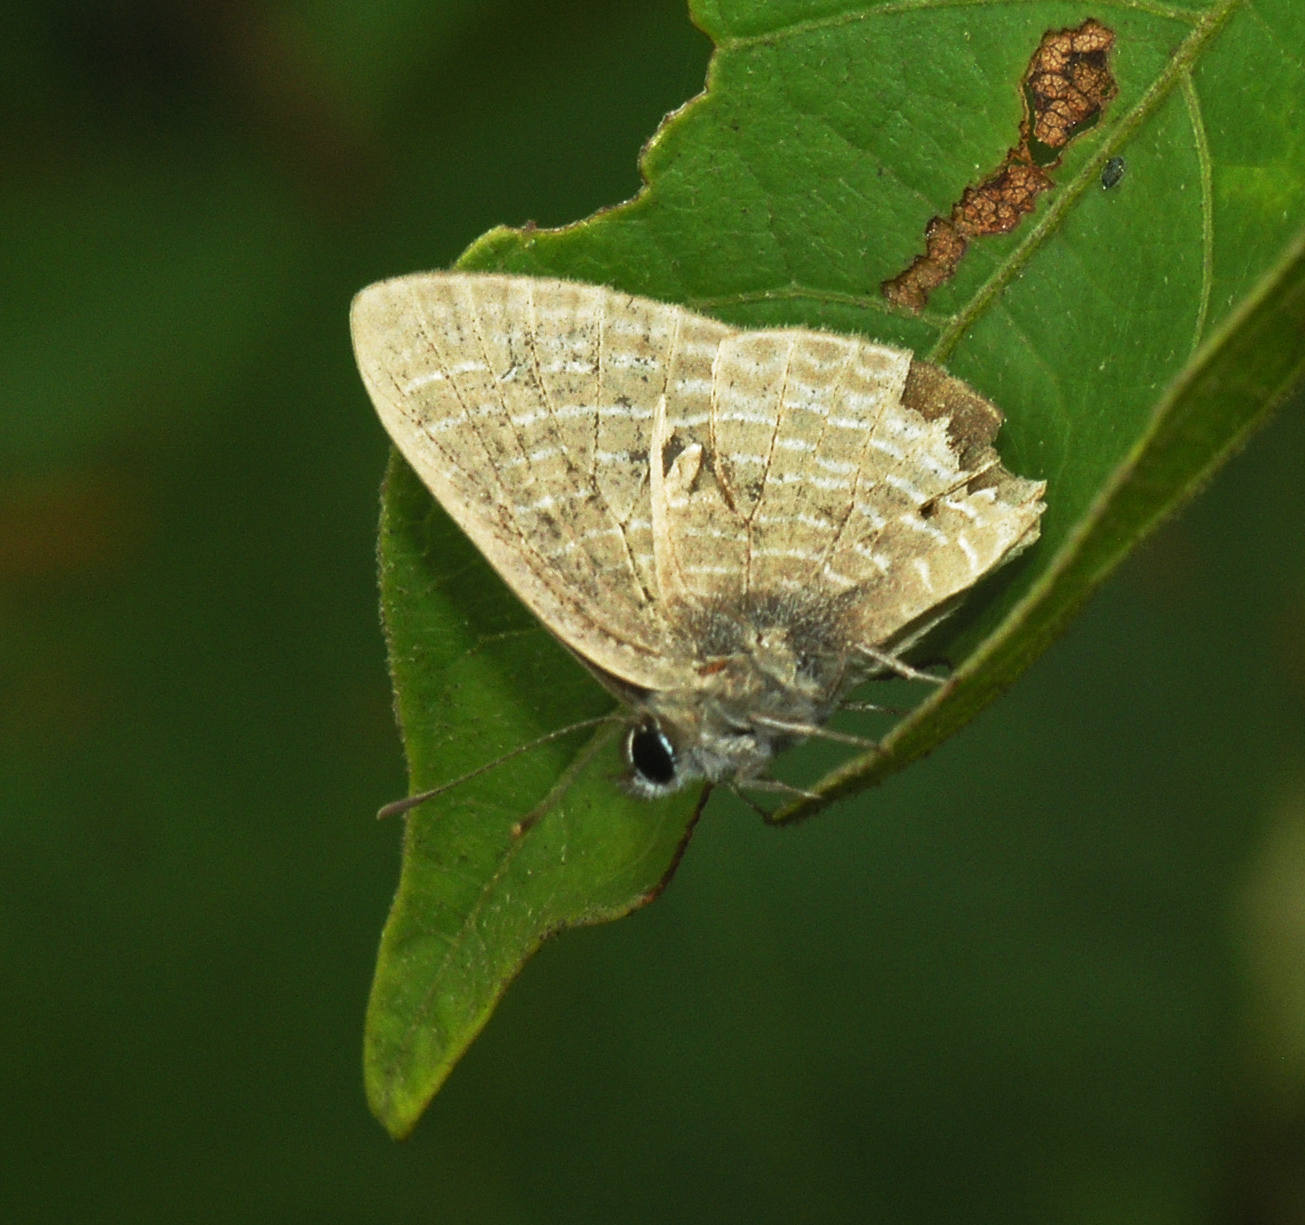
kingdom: Animalia
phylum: Arthropoda
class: Insecta
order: Lepidoptera
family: Lycaenidae
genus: Nacaduba
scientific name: Nacaduba beroe
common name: Opaque sixline blue
